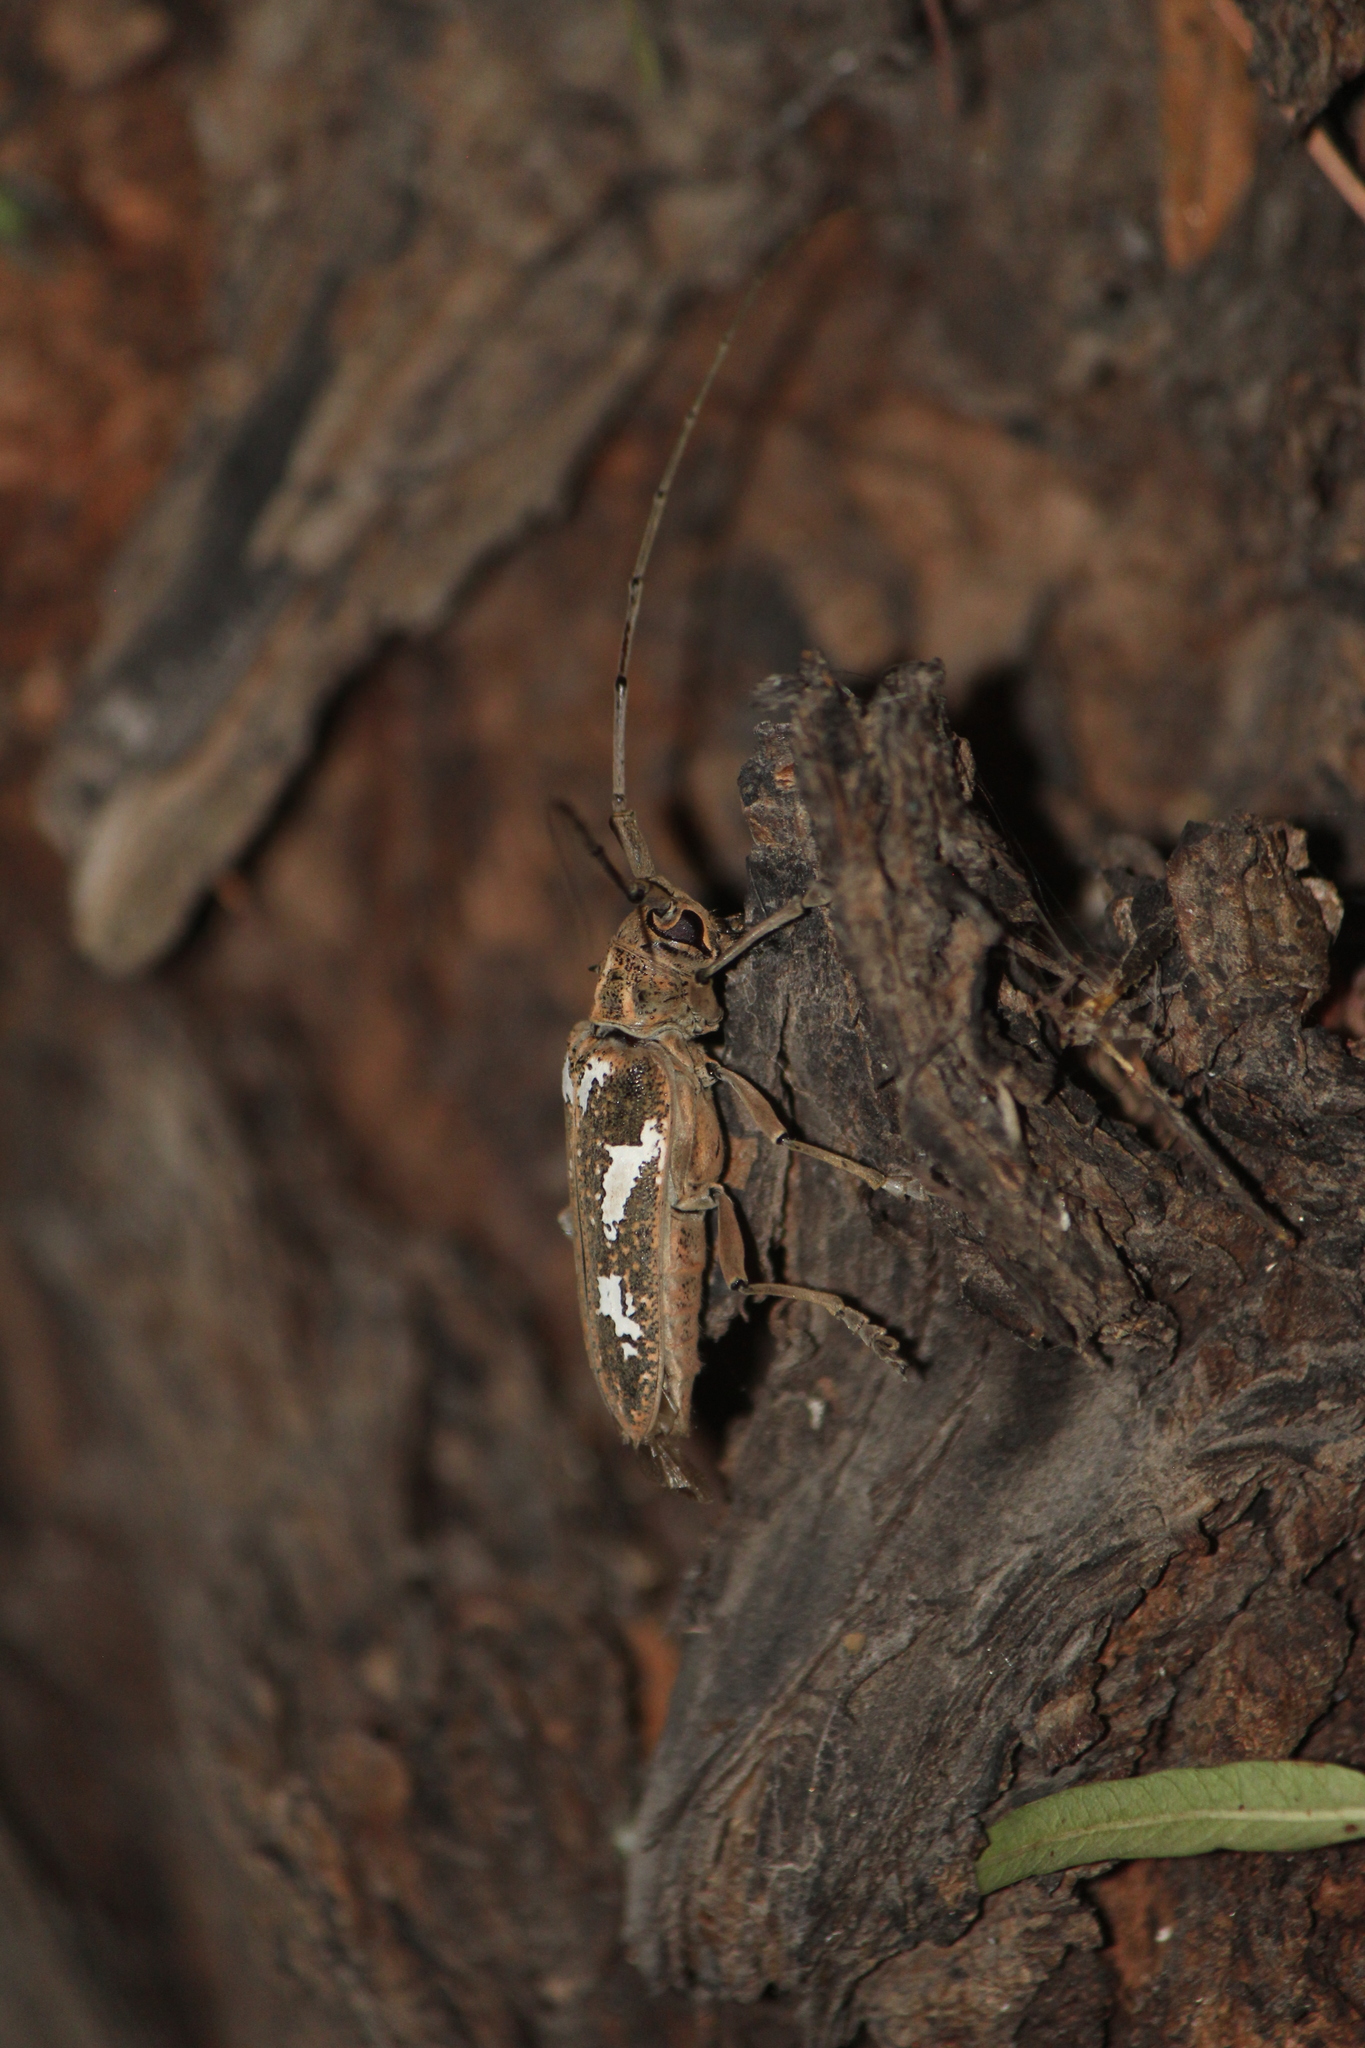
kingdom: Animalia
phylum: Arthropoda
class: Insecta
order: Coleoptera
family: Cerambycidae
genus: Plagiohammus
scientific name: Plagiohammus laceratus
